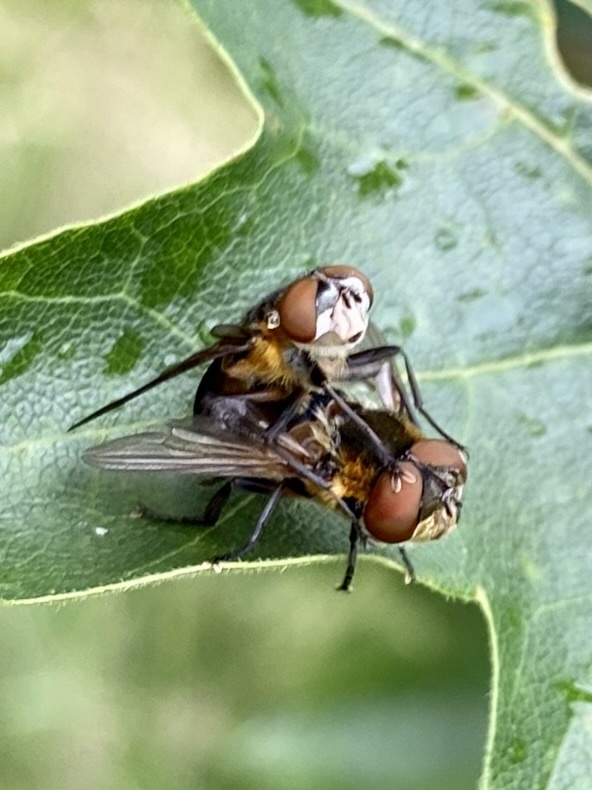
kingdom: Animalia
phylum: Arthropoda
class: Insecta
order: Diptera
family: Tachinidae
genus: Phasia
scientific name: Phasia hemiptera
